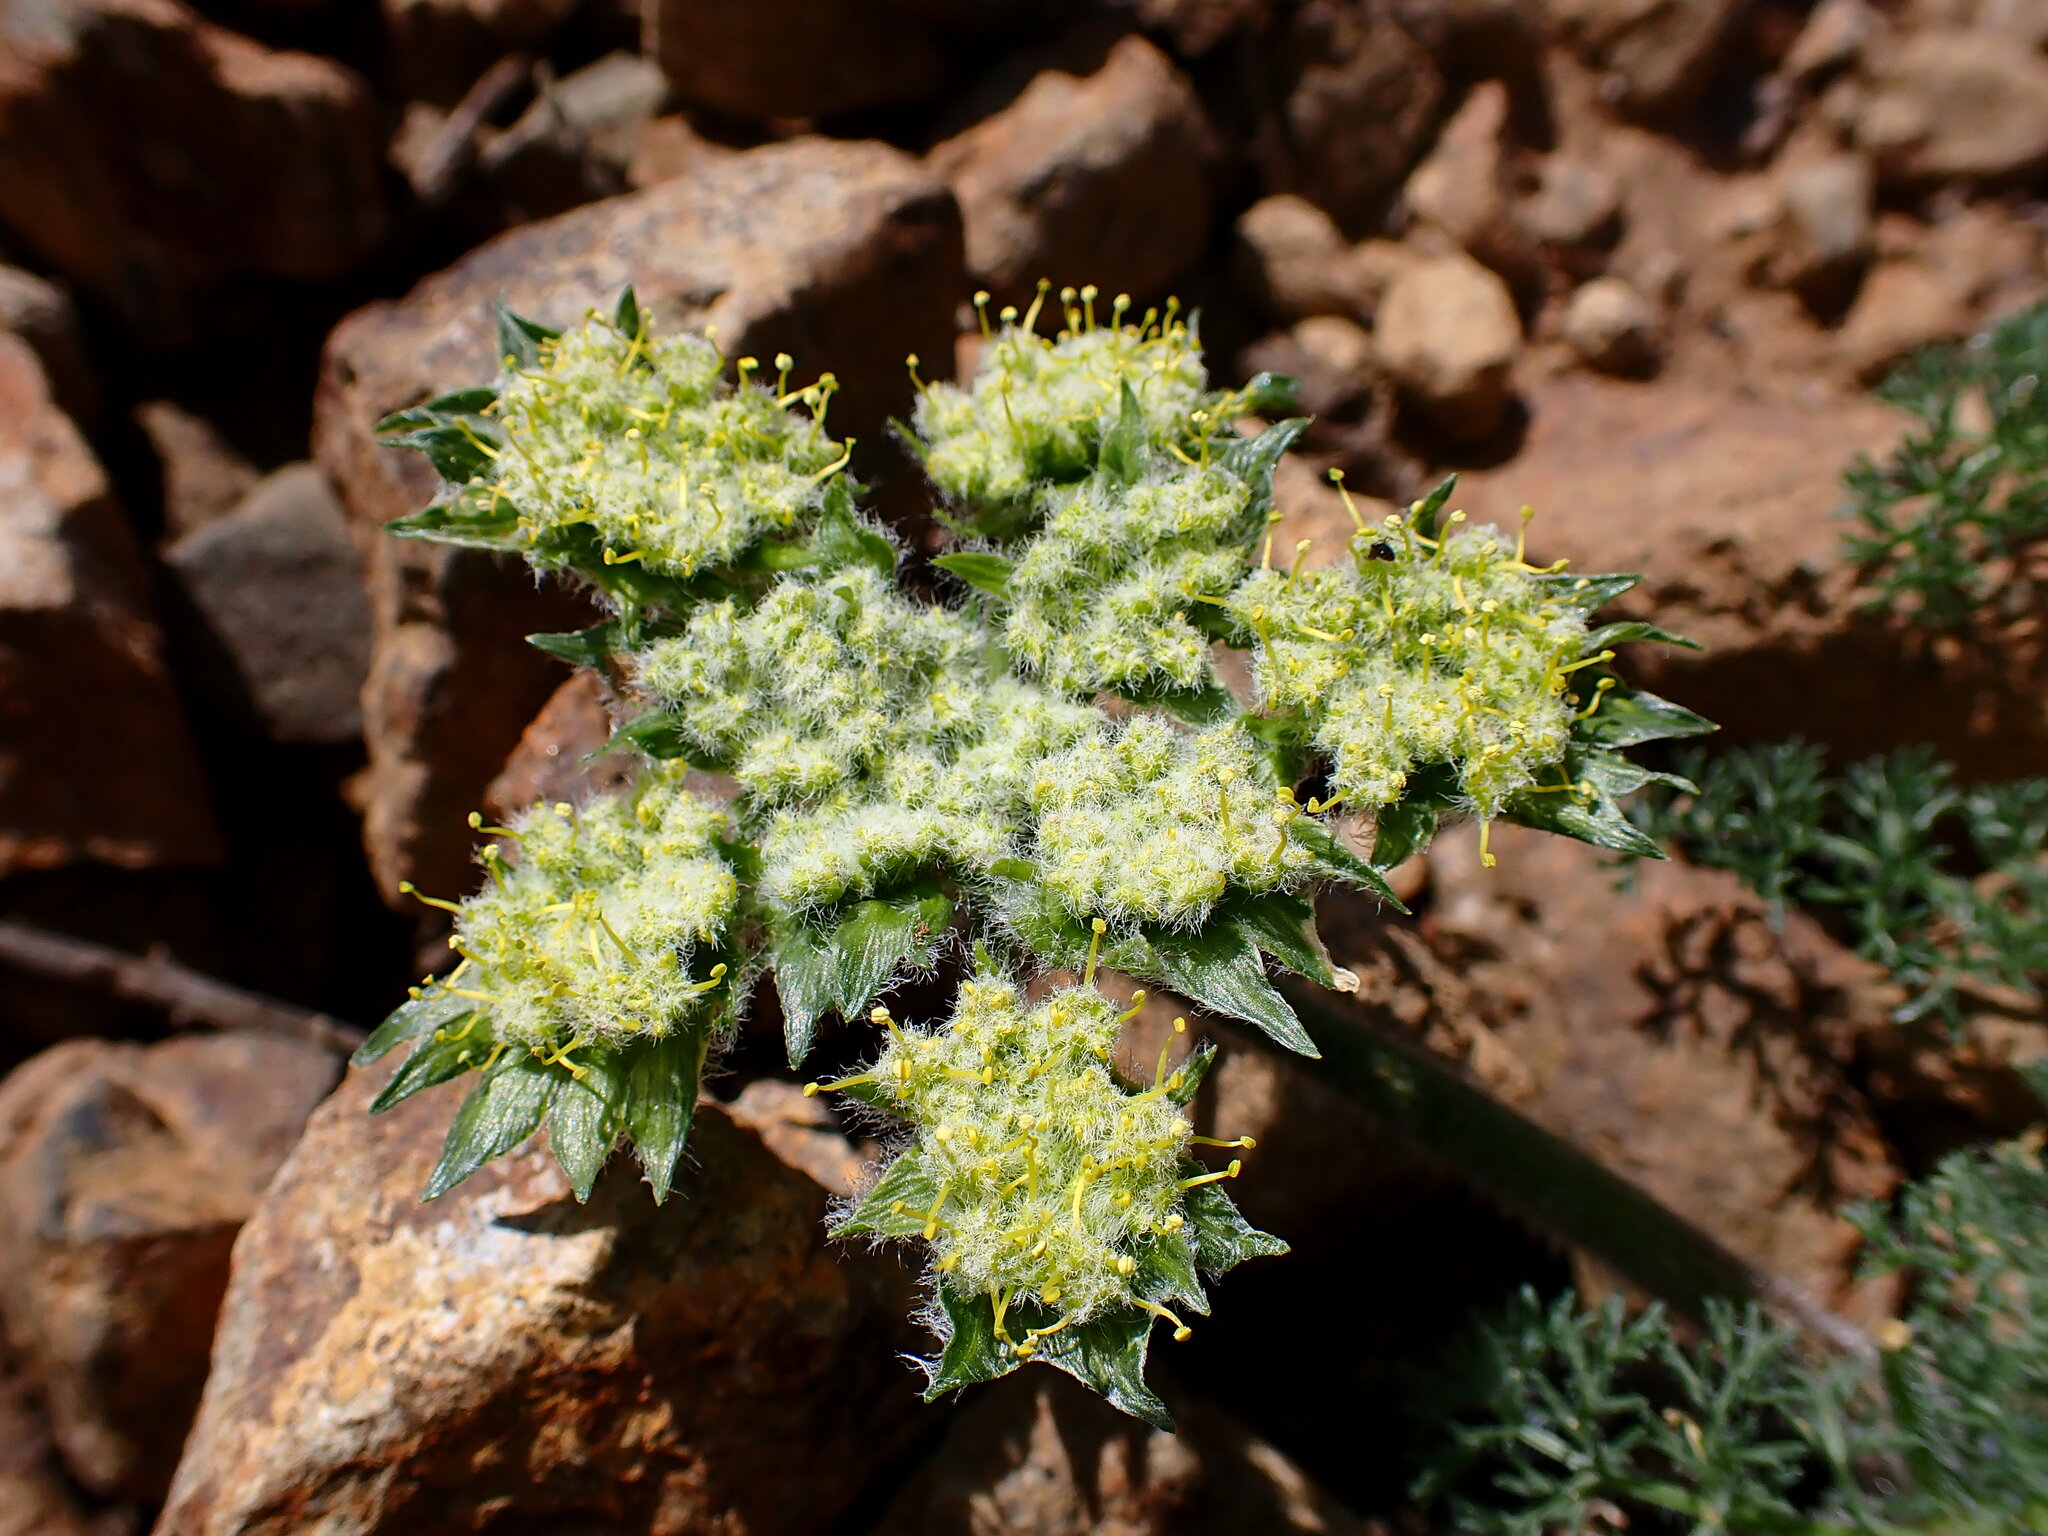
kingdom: Plantae
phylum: Tracheophyta
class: Magnoliopsida
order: Apiales
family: Apiaceae
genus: Lomatium
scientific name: Lomatium dasycarpum
